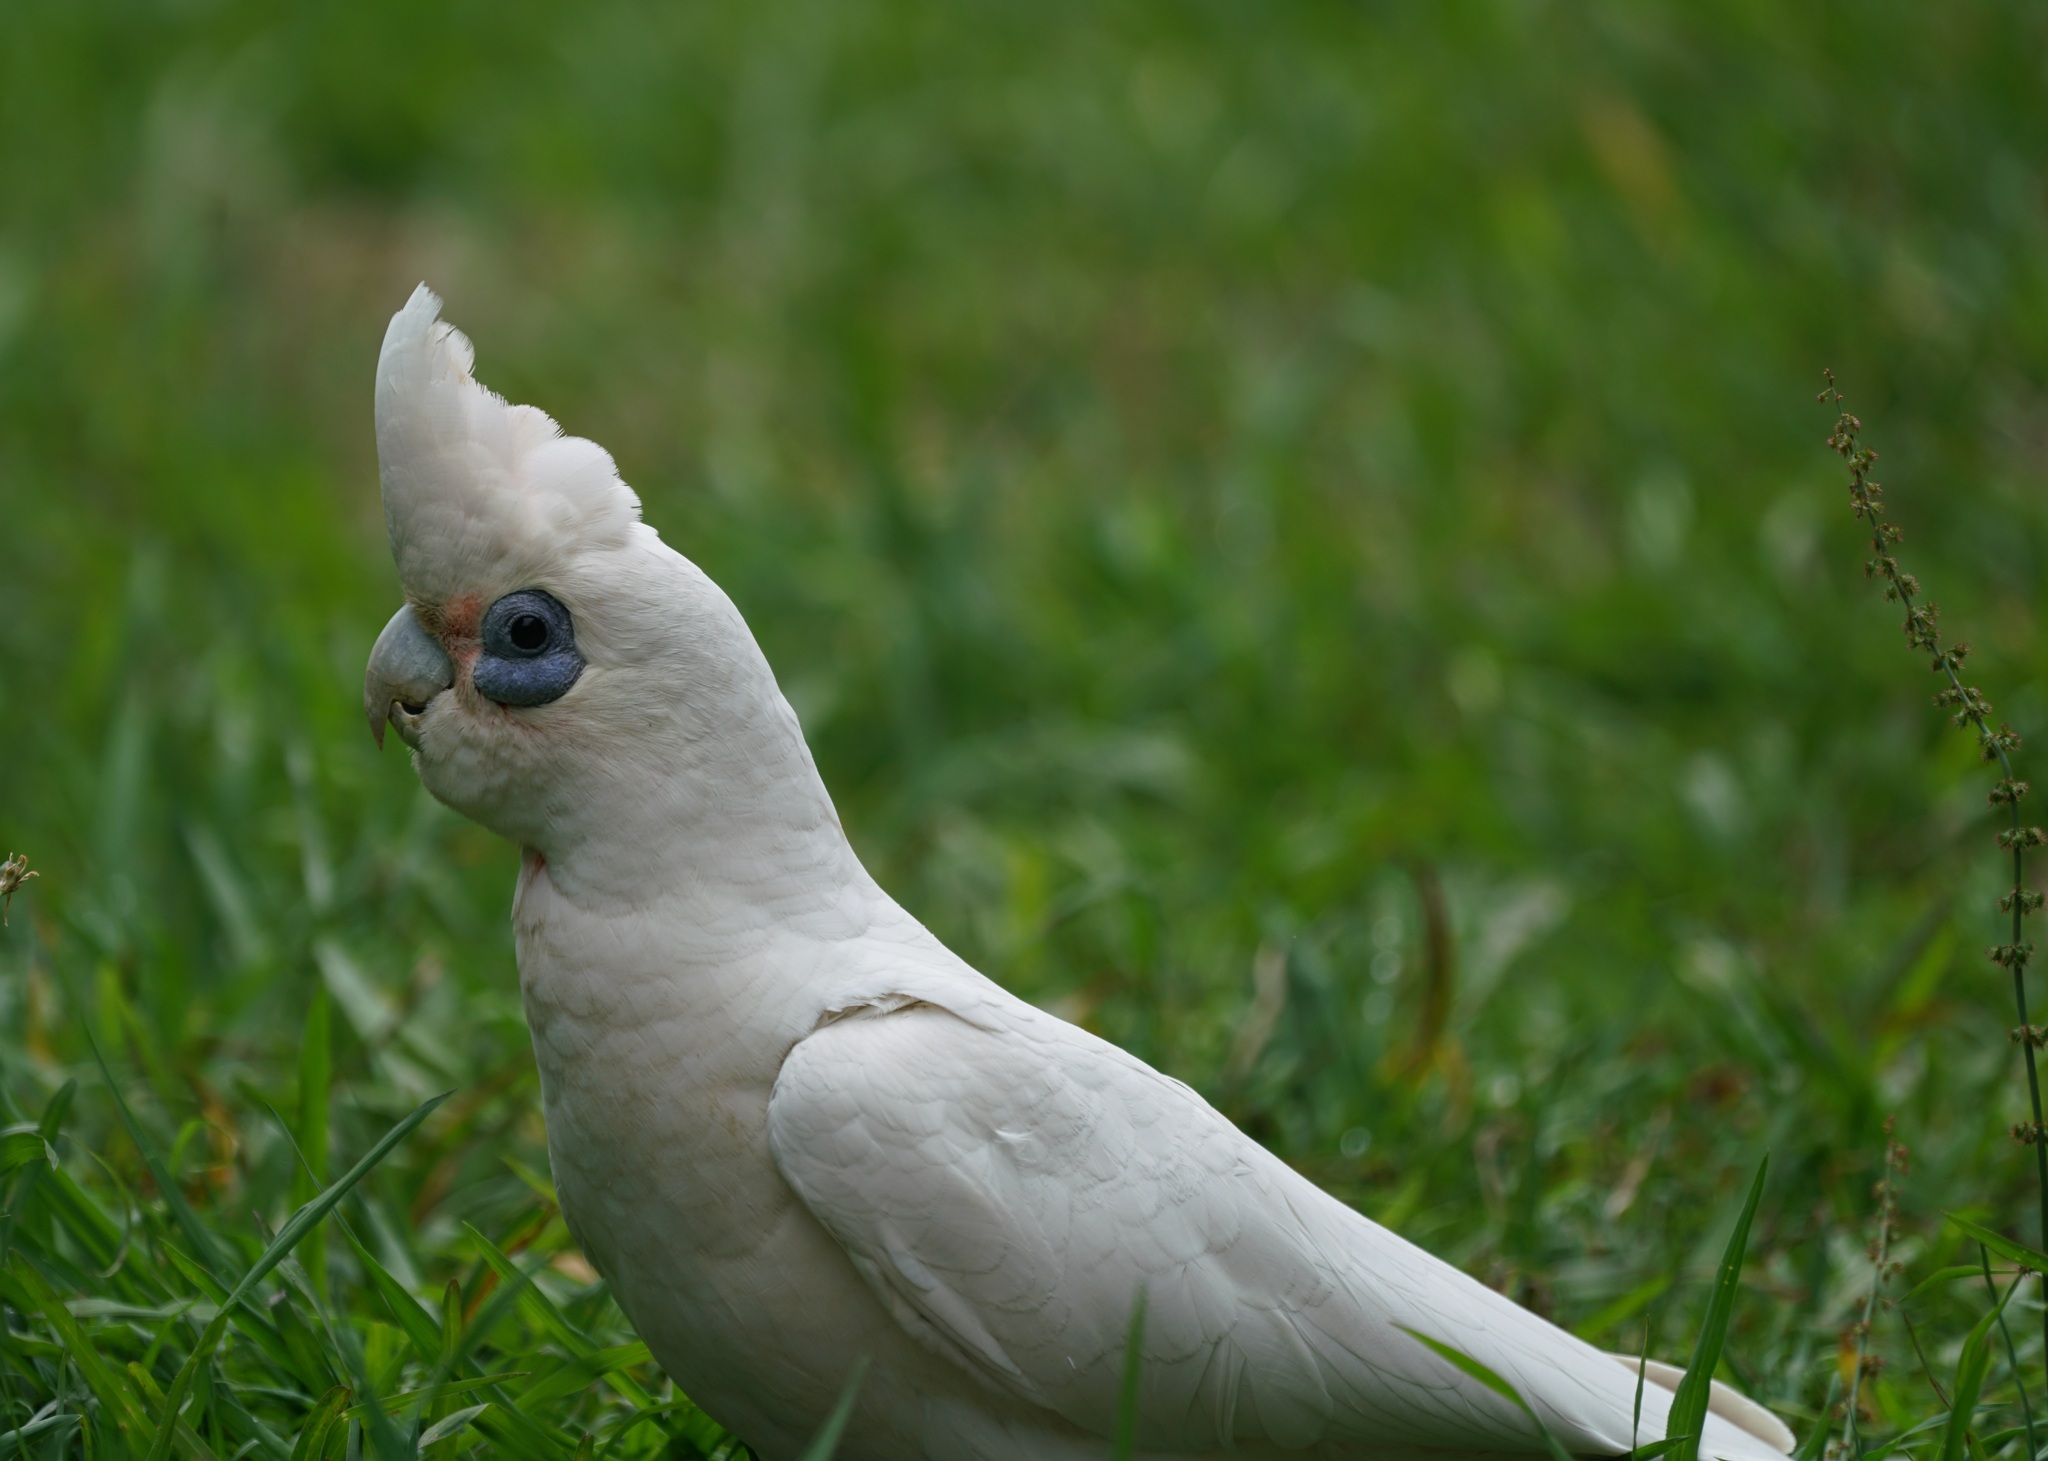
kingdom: Animalia
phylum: Chordata
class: Aves
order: Psittaciformes
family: Psittacidae
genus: Cacatua
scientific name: Cacatua sanguinea
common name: Little corella
